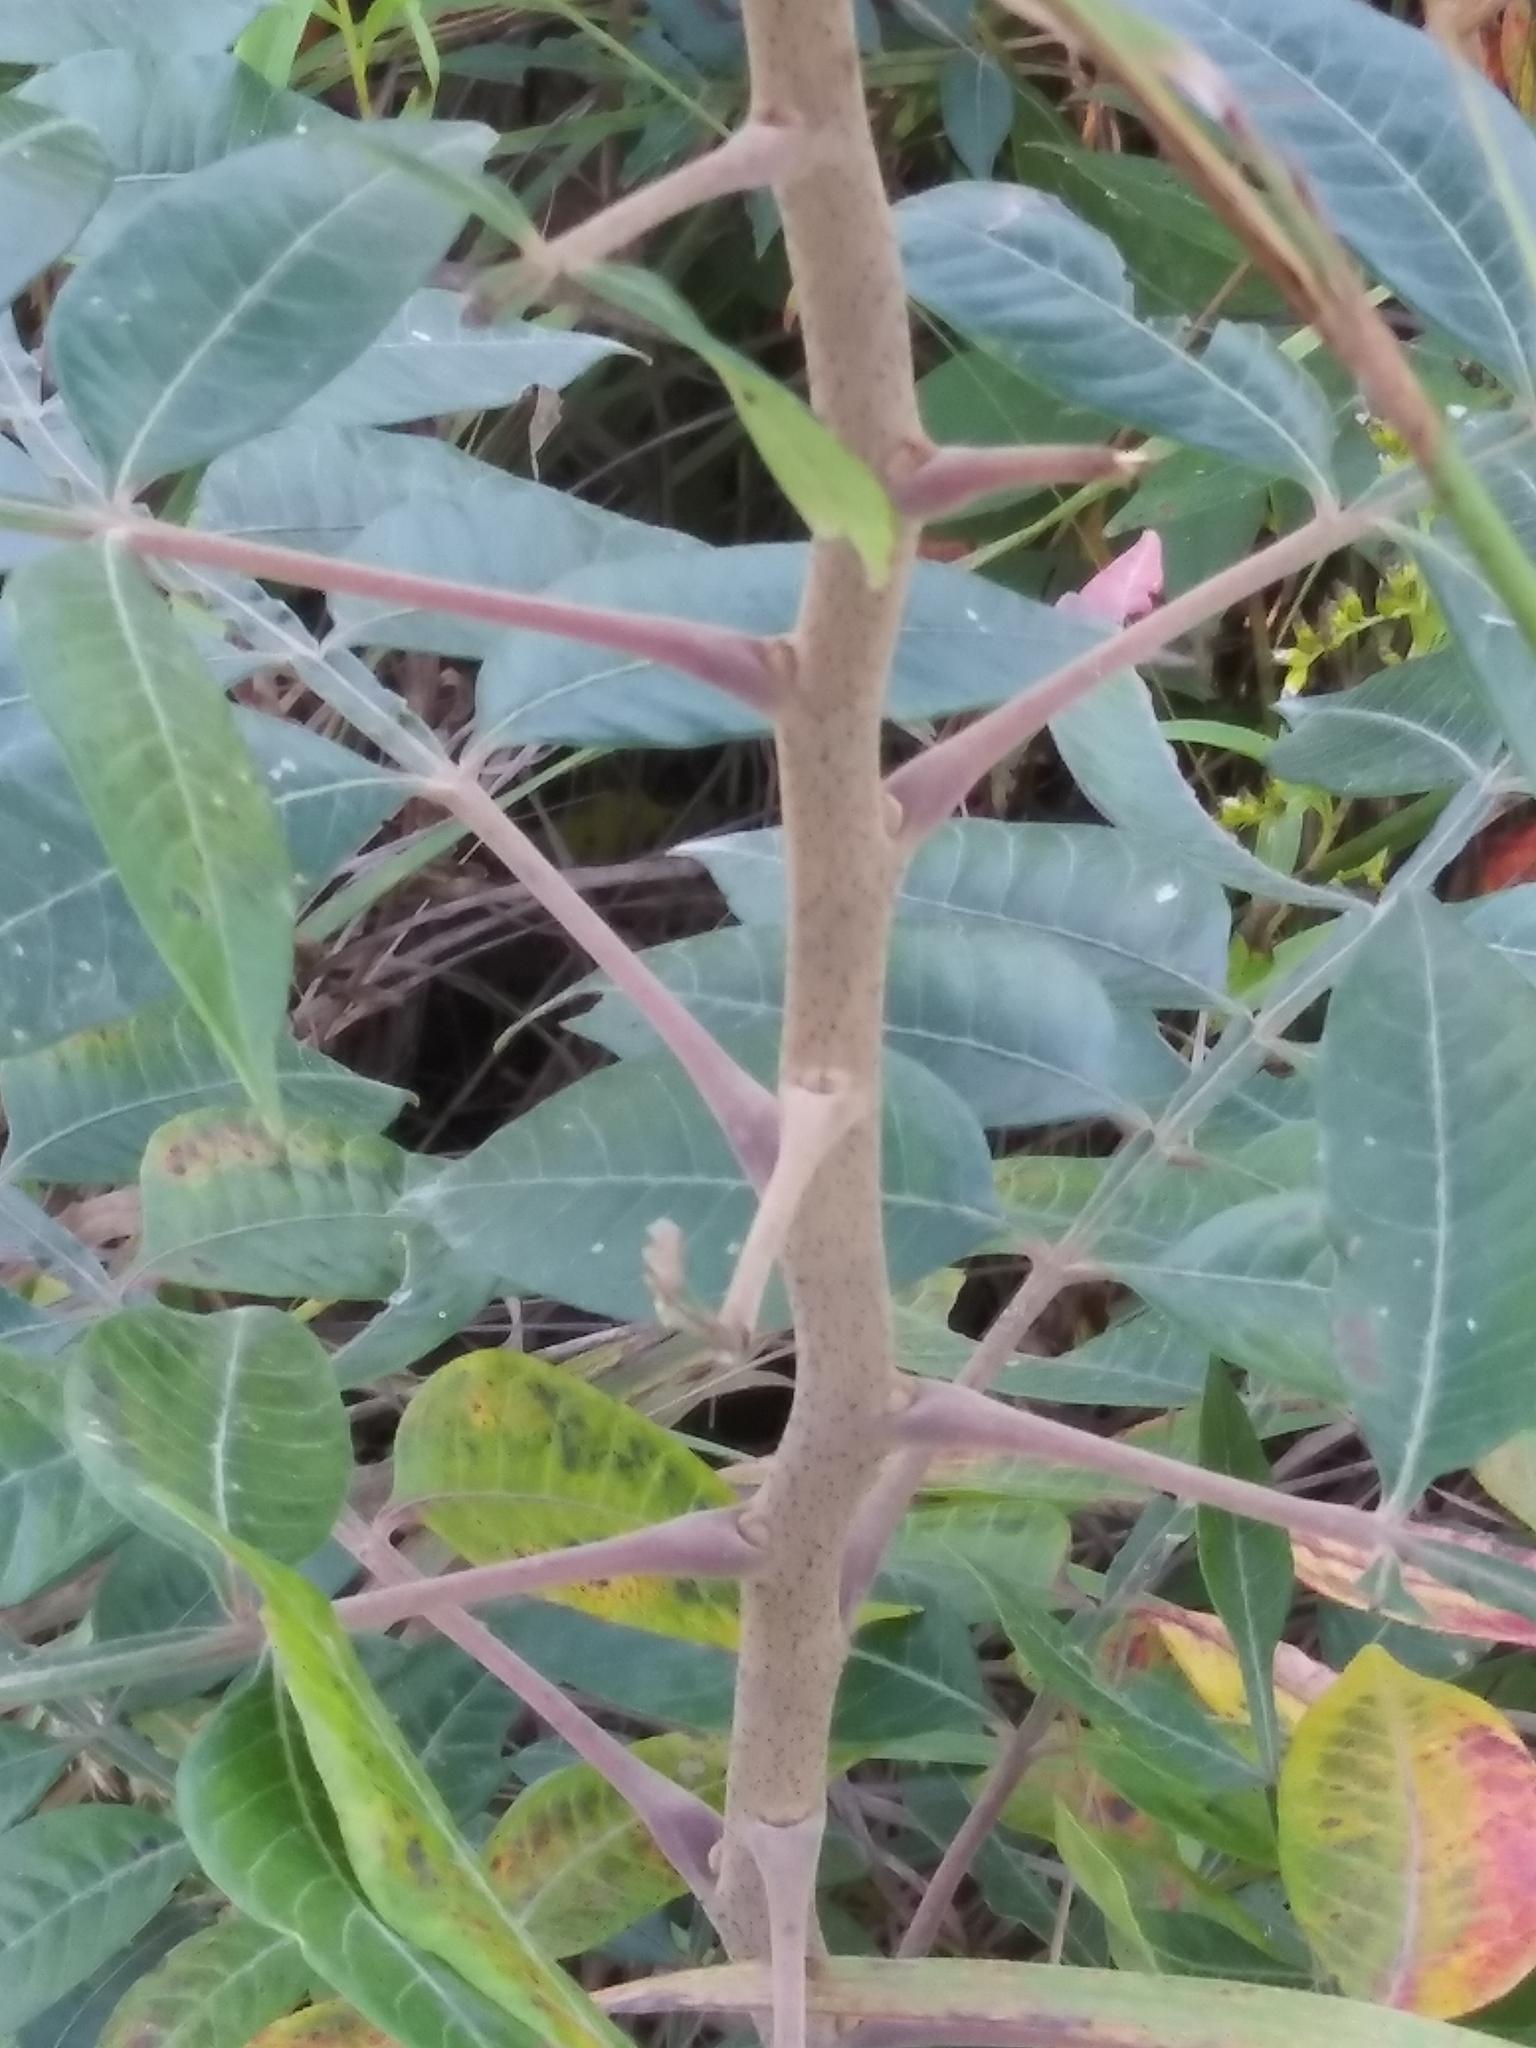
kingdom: Plantae
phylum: Tracheophyta
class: Magnoliopsida
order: Sapindales
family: Anacardiaceae
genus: Rhus
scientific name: Rhus copallina
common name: Shining sumac
